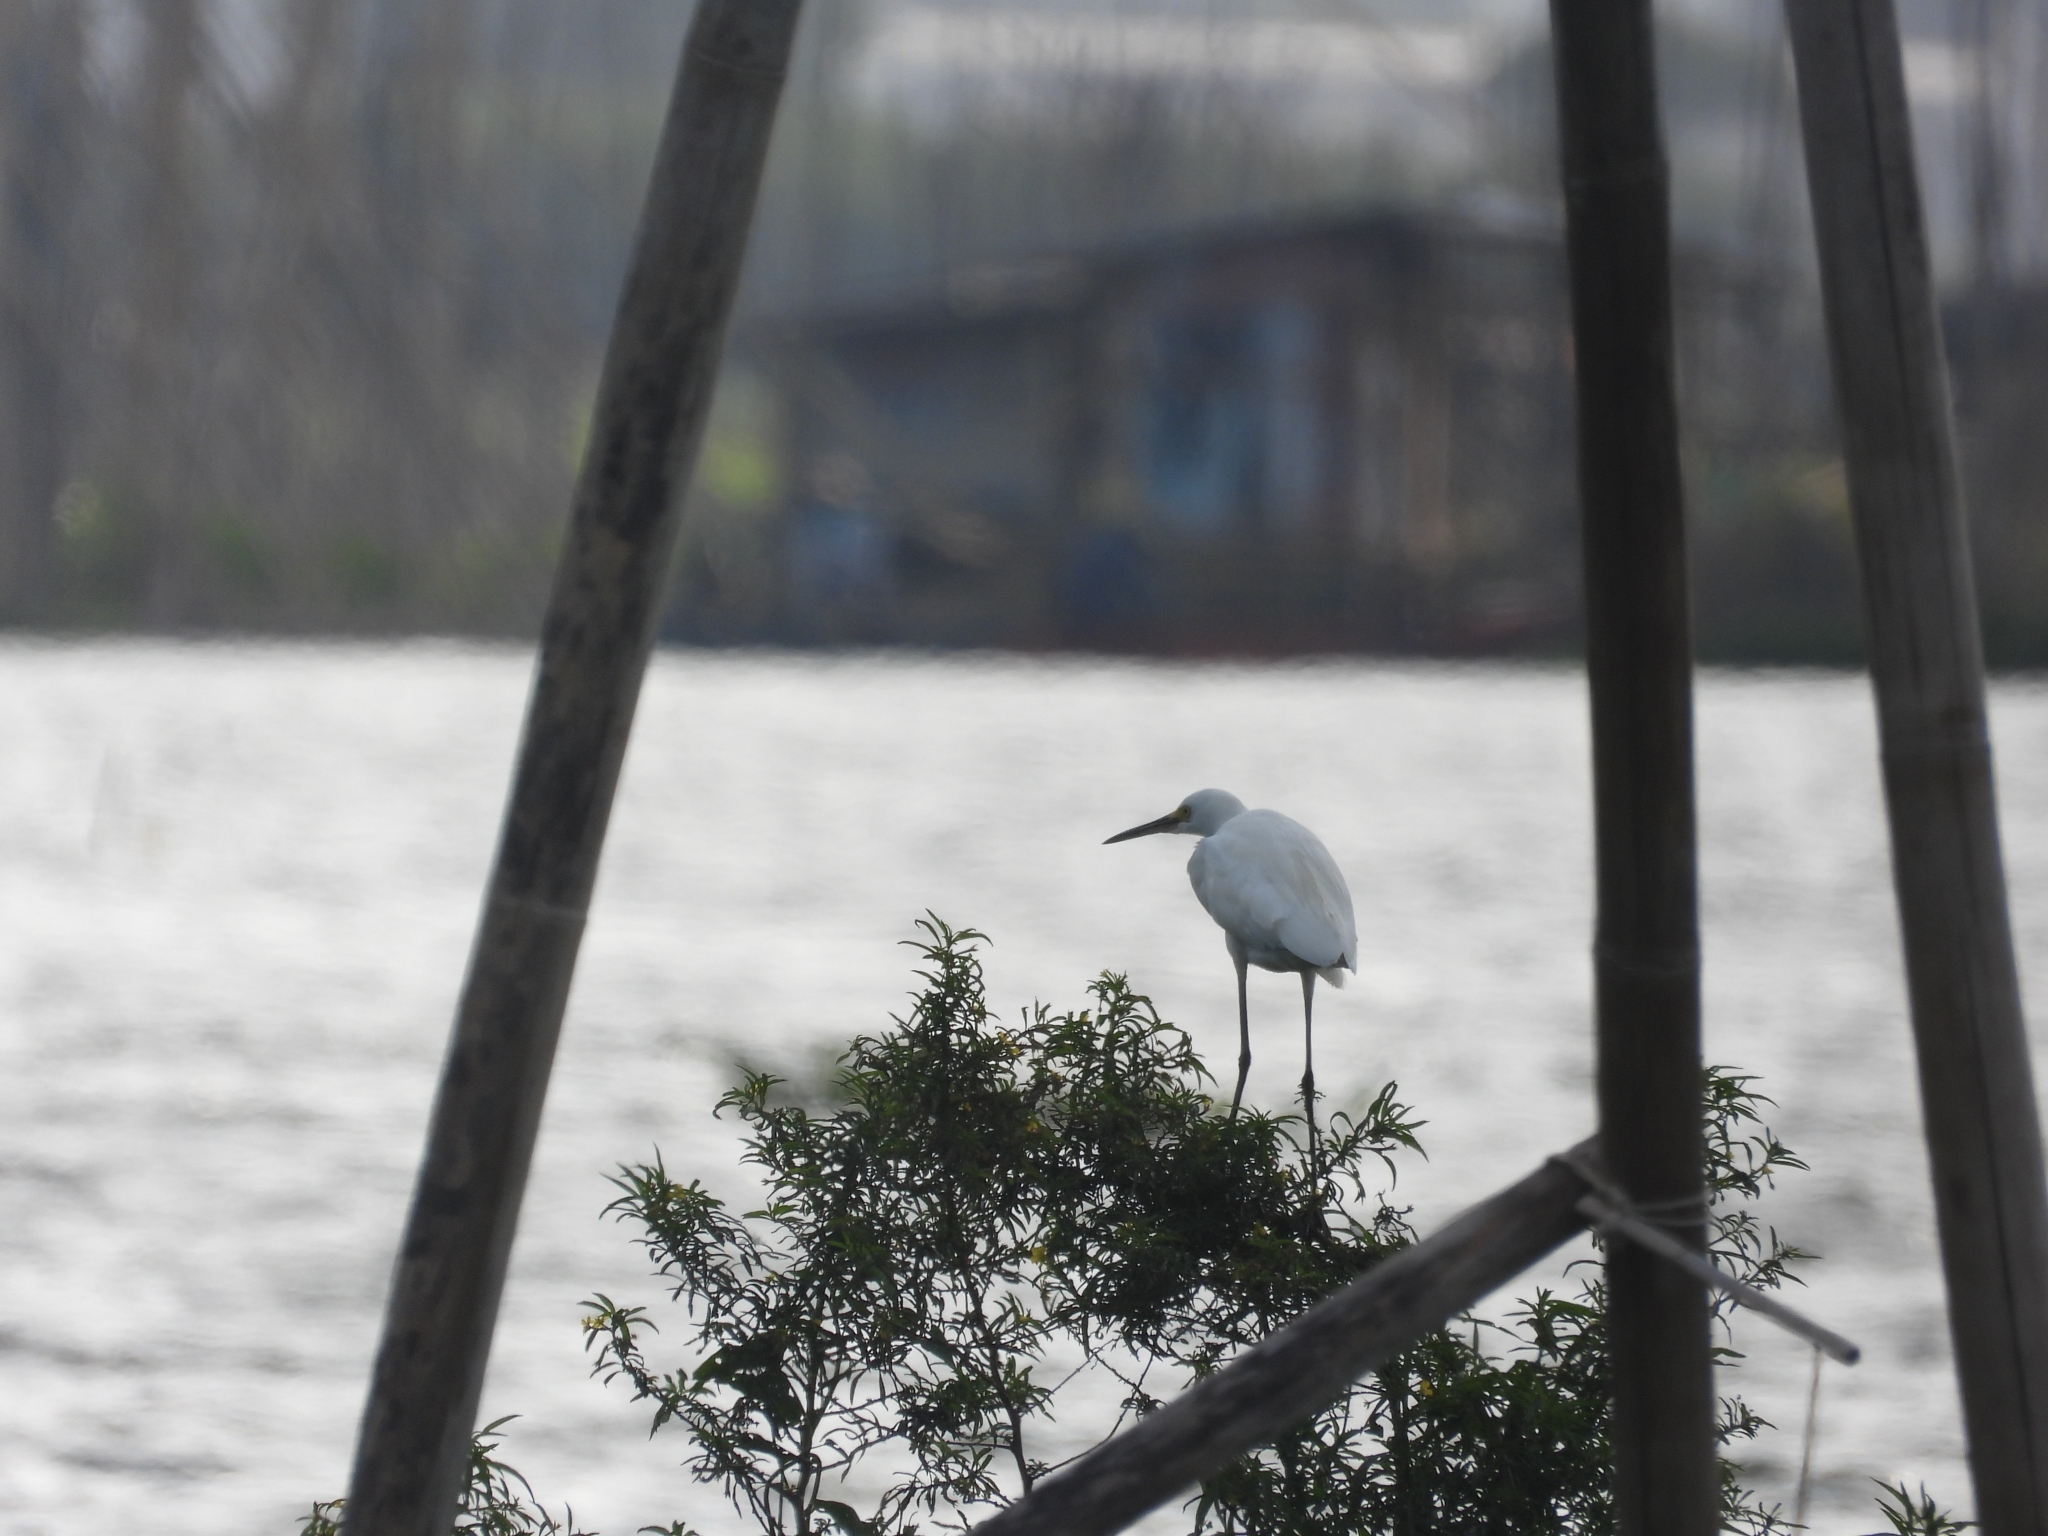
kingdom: Animalia
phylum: Chordata
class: Aves
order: Pelecaniformes
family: Ardeidae
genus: Egretta
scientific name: Egretta garzetta
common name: Little egret
